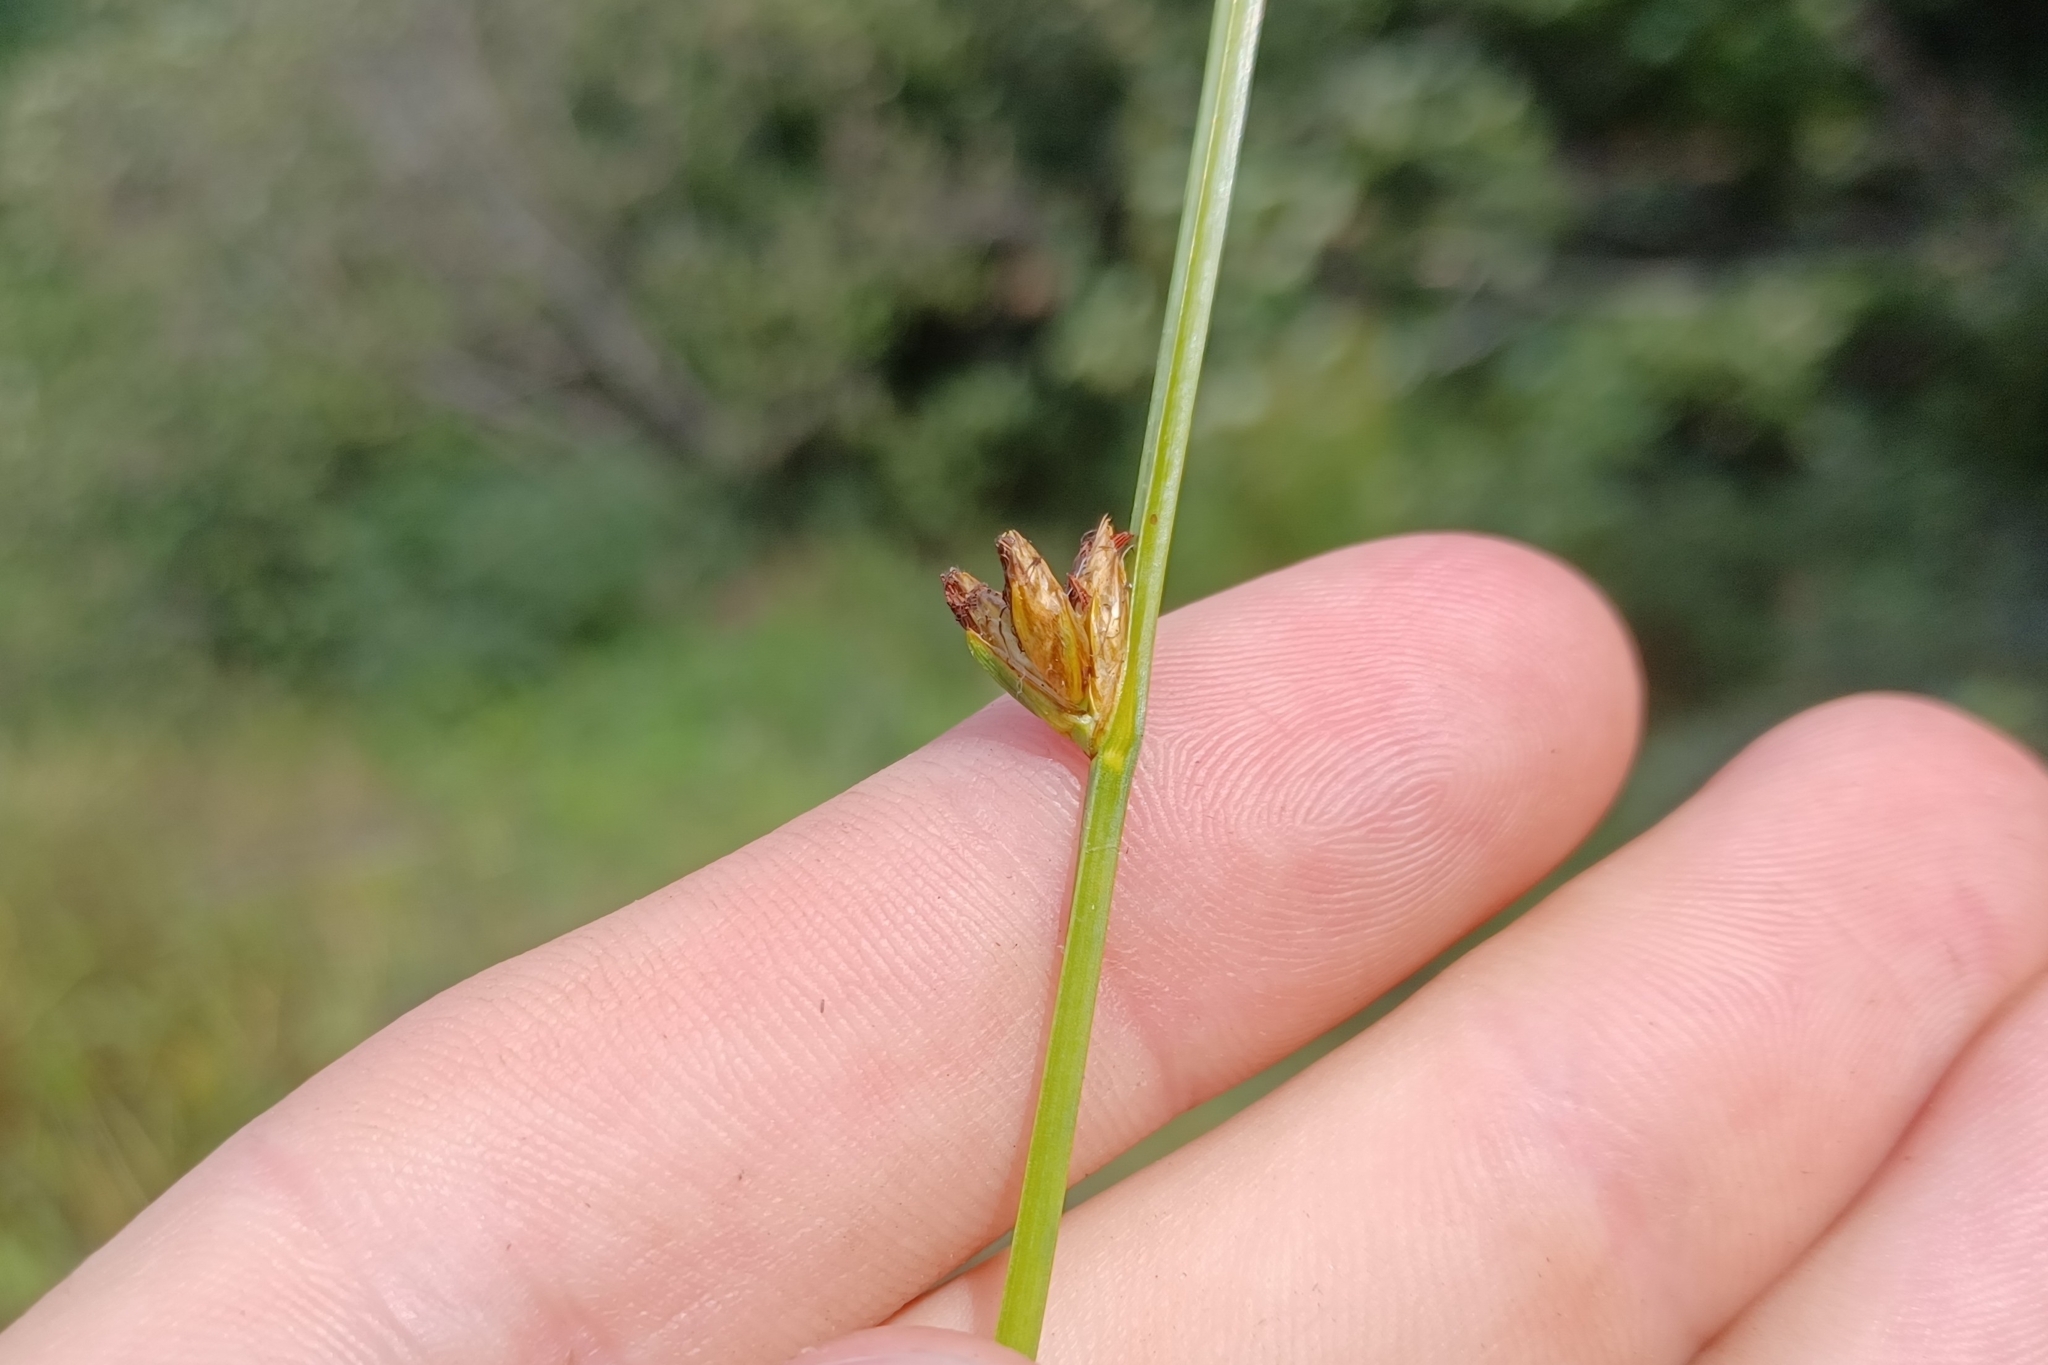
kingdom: Plantae
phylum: Tracheophyta
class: Liliopsida
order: Poales
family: Cyperaceae
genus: Schoenoplectus
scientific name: Schoenoplectus torreyi
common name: Torrey's bulrush
